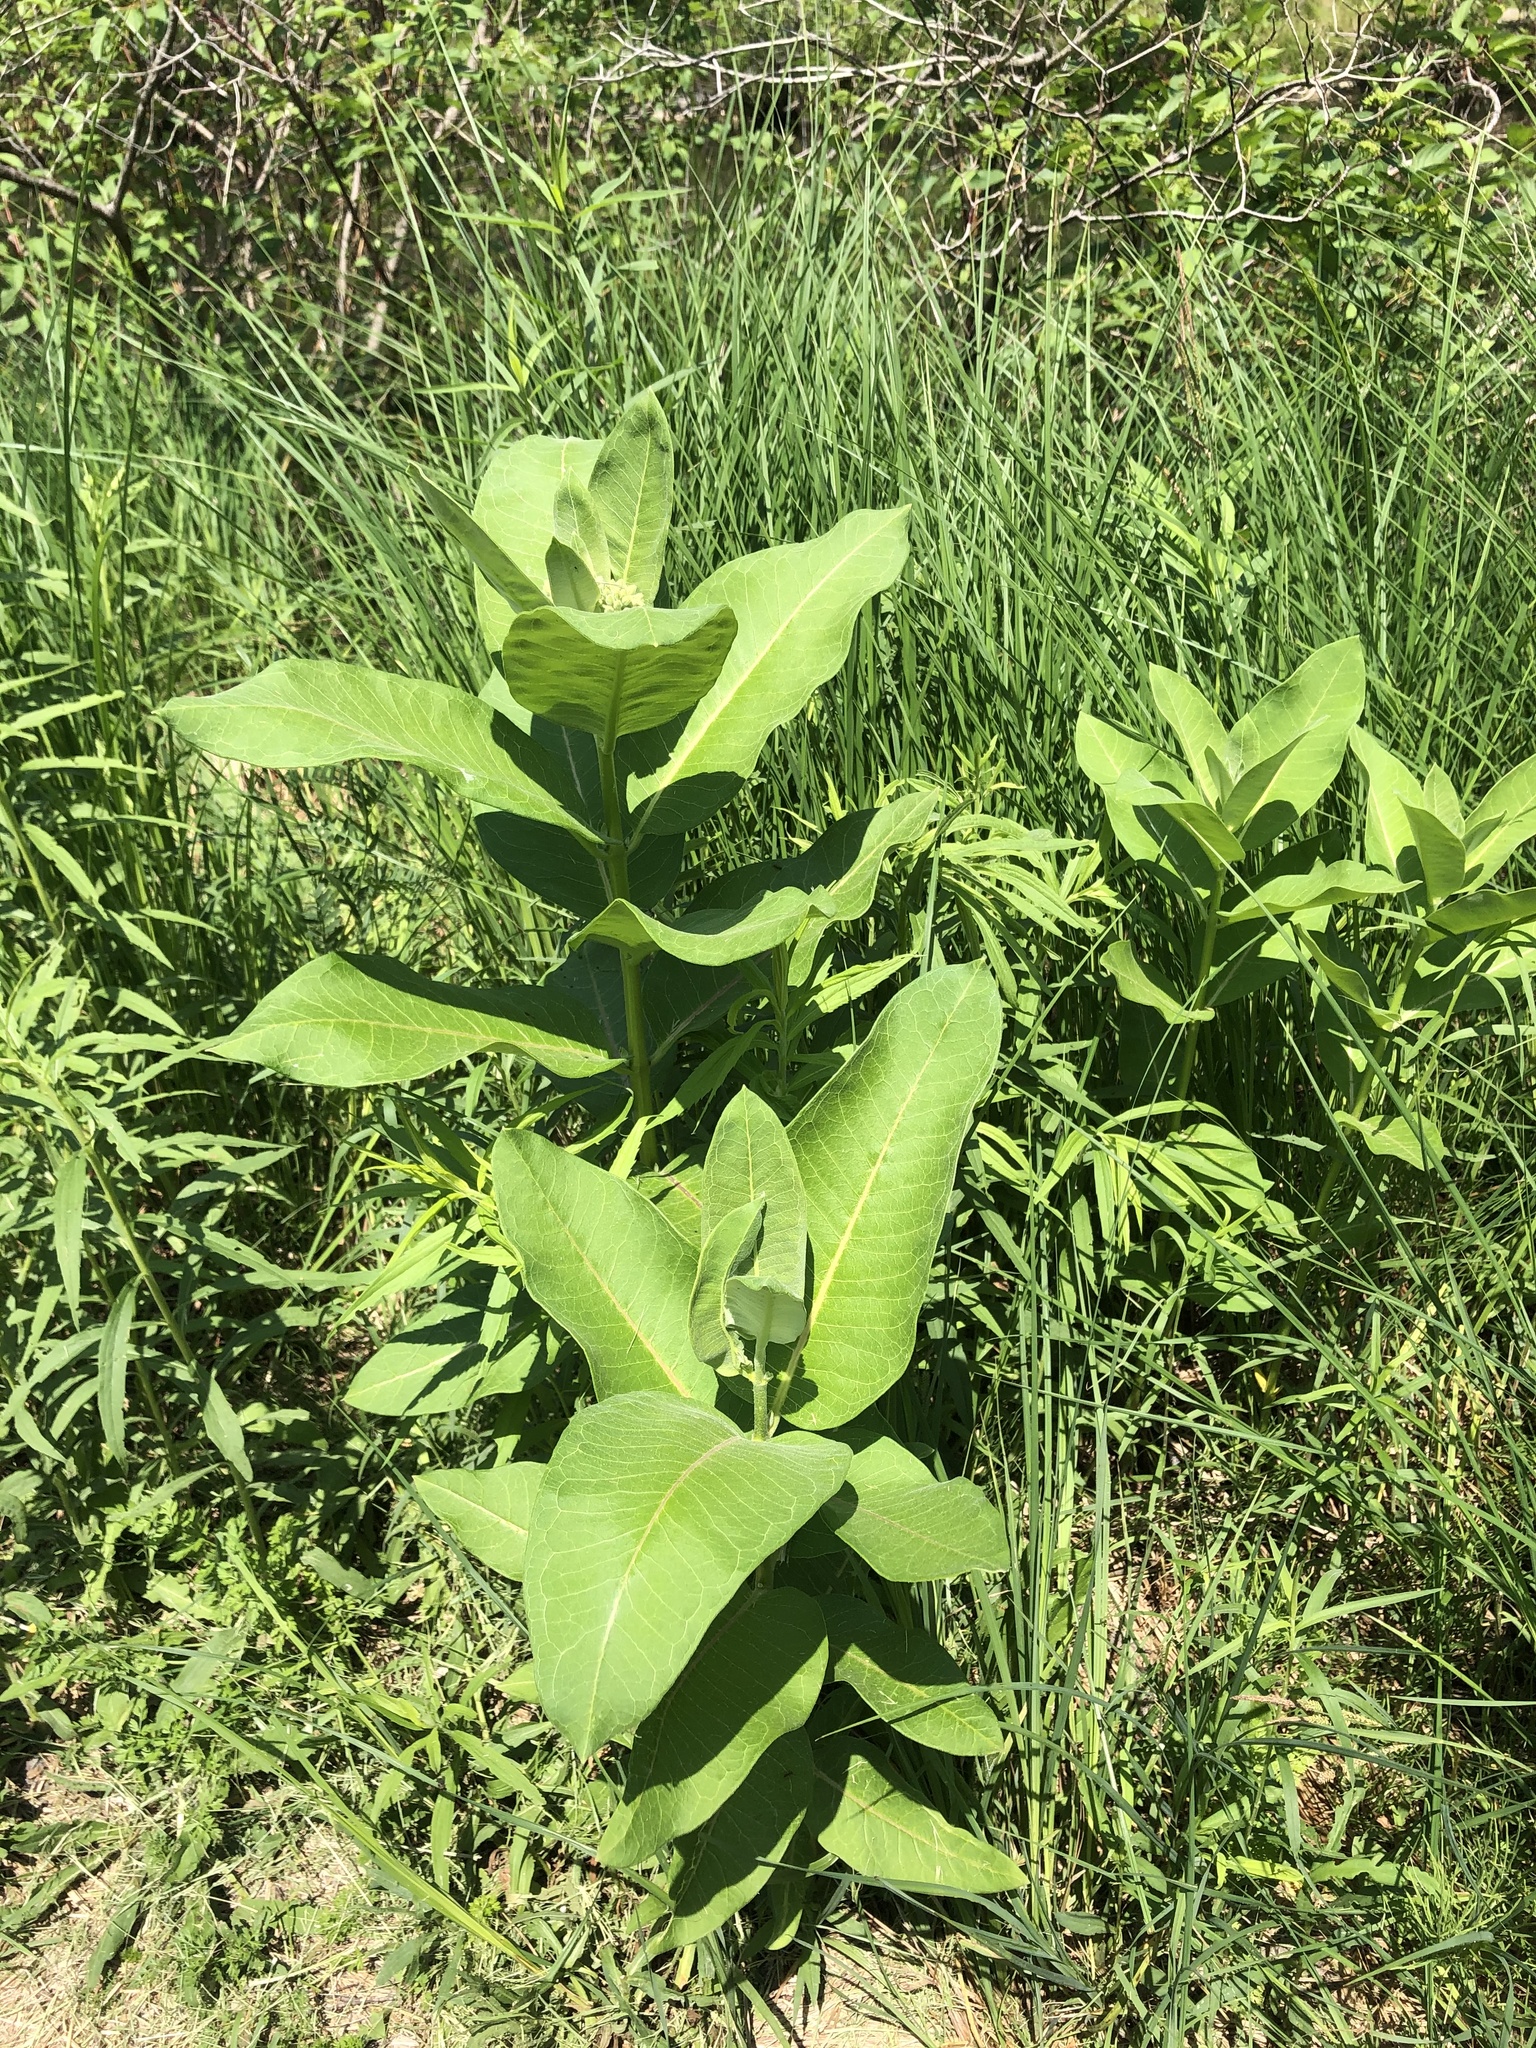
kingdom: Plantae
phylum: Tracheophyta
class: Magnoliopsida
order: Gentianales
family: Apocynaceae
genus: Asclepias
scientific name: Asclepias syriaca
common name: Common milkweed
